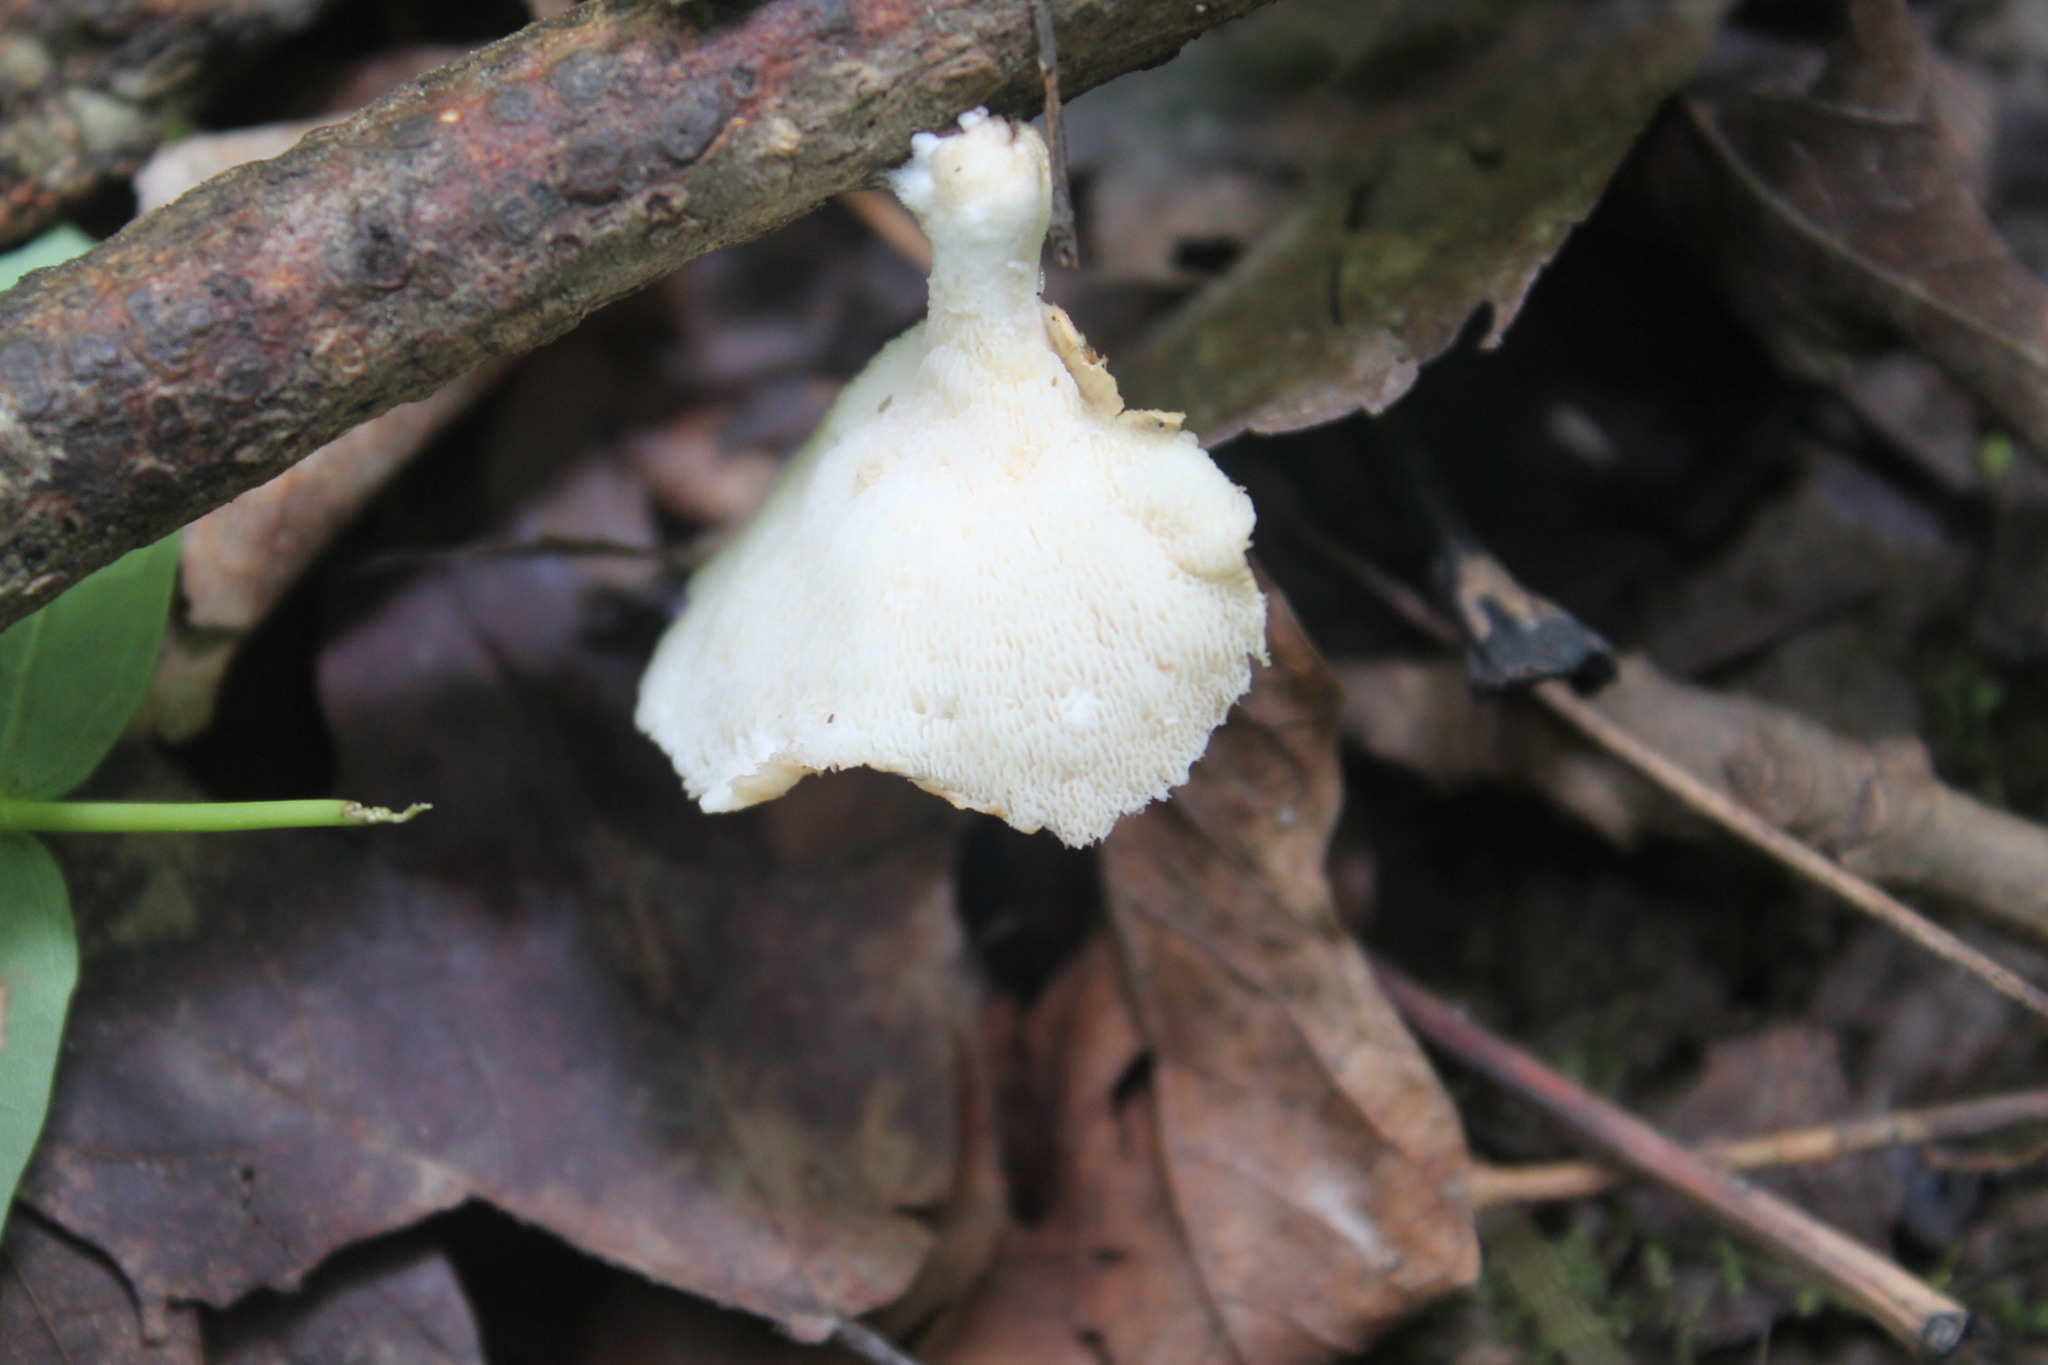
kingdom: Fungi
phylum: Basidiomycota
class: Agaricomycetes
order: Polyporales
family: Polyporaceae
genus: Neofavolus
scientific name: Neofavolus alveolaris
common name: Hexagonal-pored polypore
